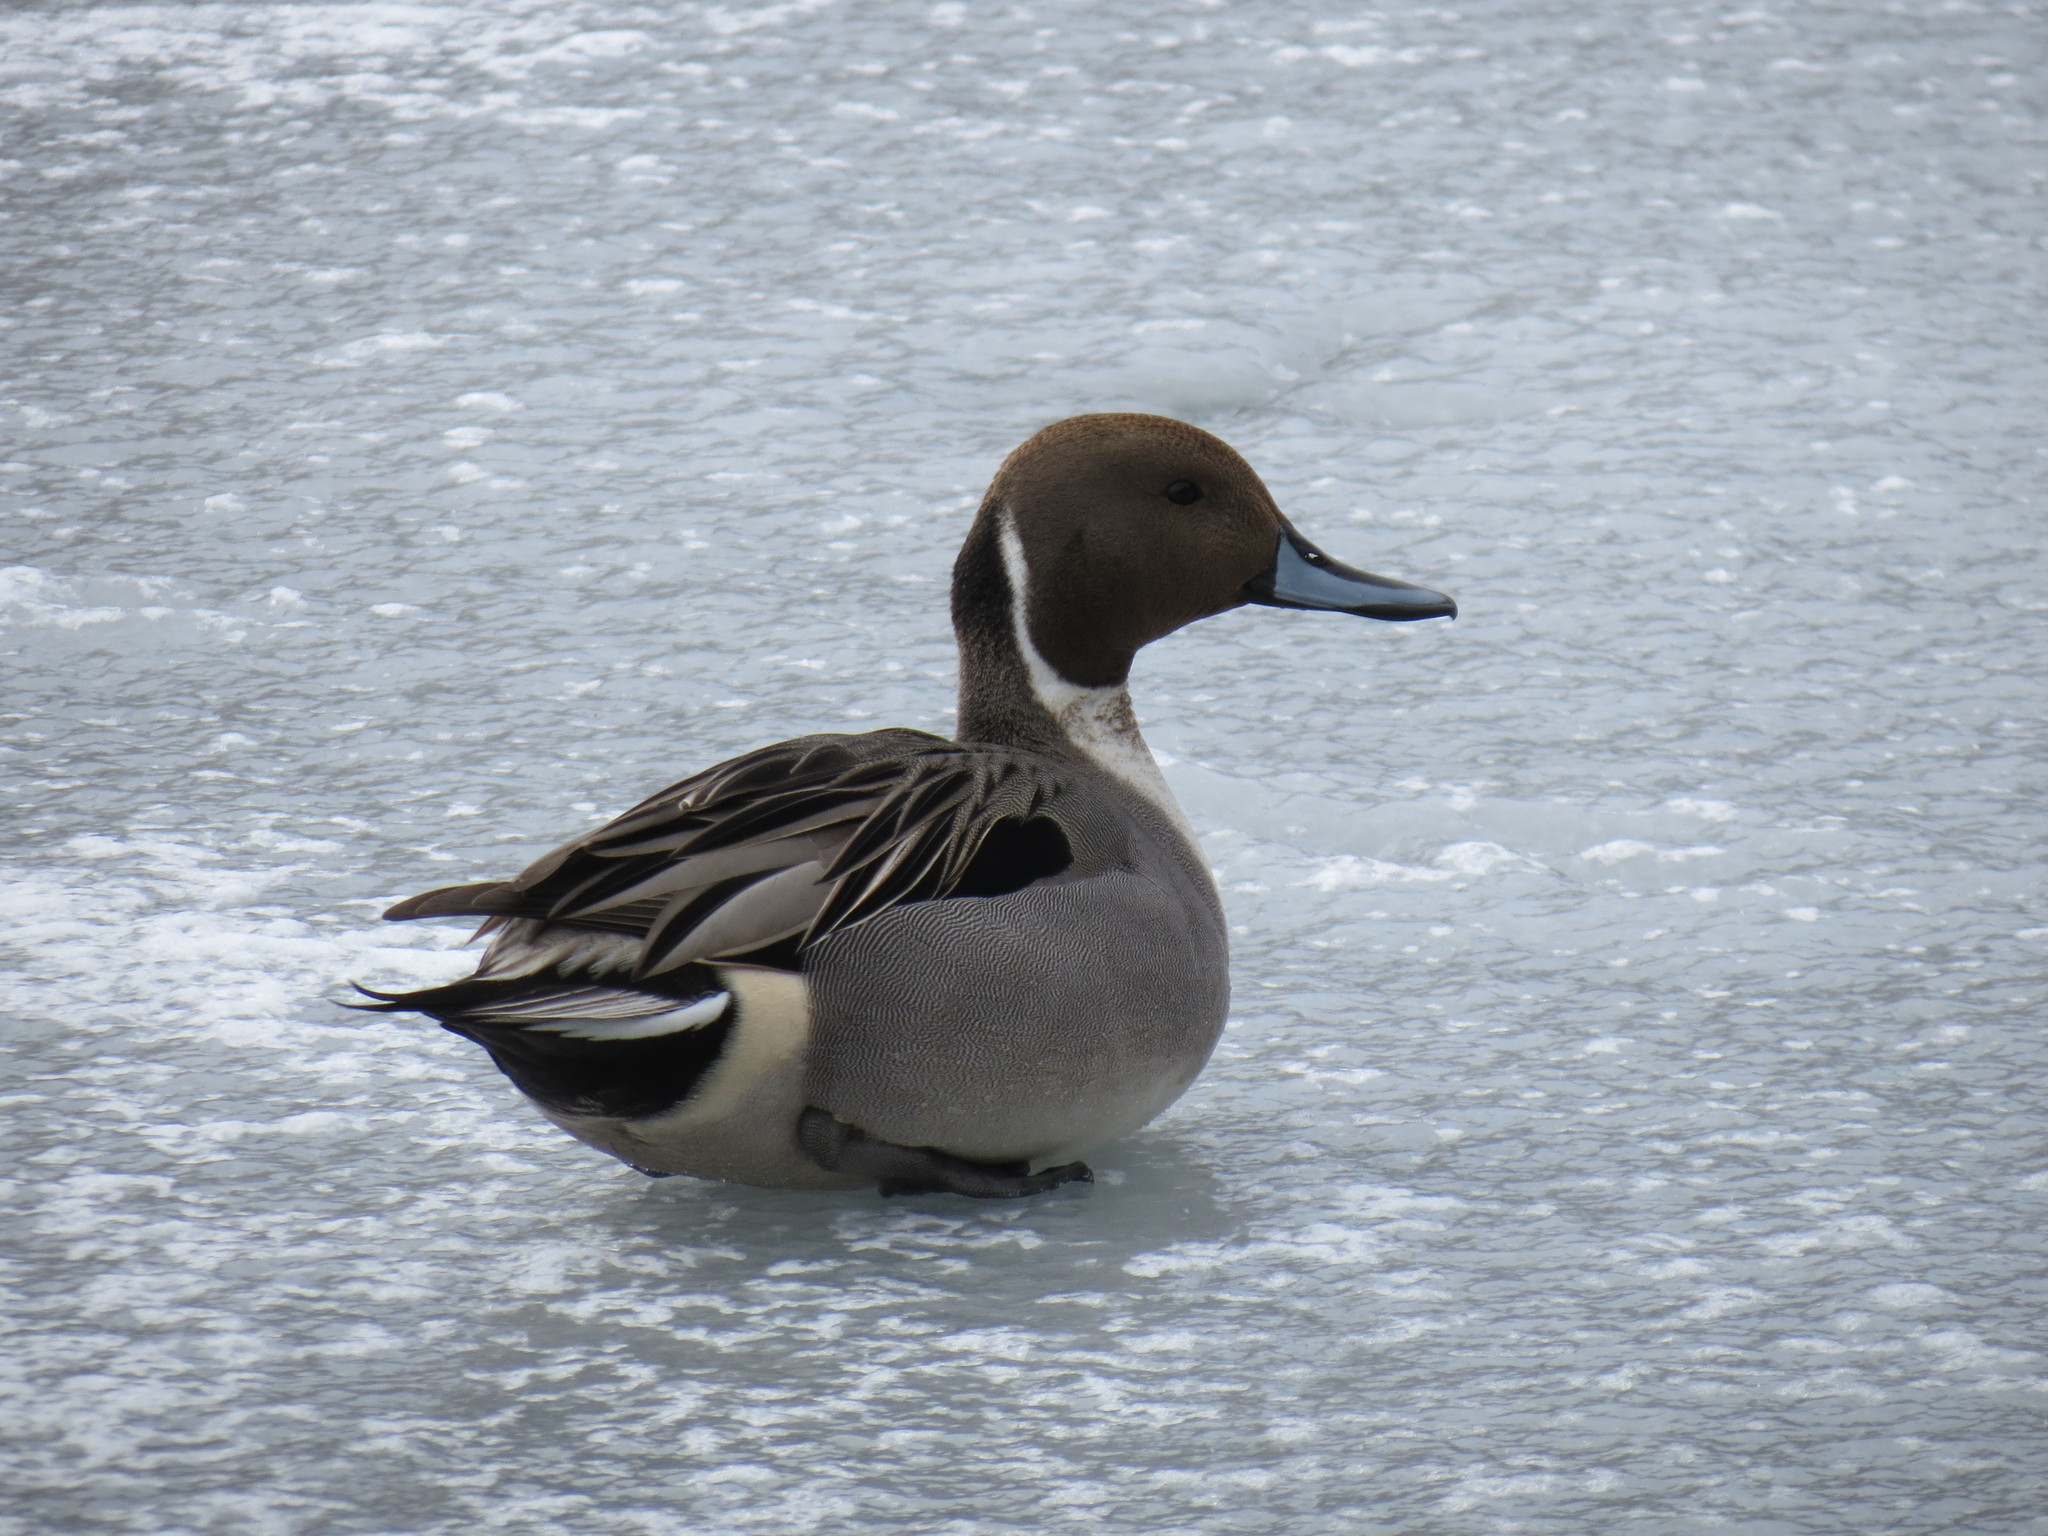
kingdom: Animalia
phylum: Chordata
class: Aves
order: Anseriformes
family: Anatidae
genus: Anas
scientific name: Anas acuta
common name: Northern pintail
